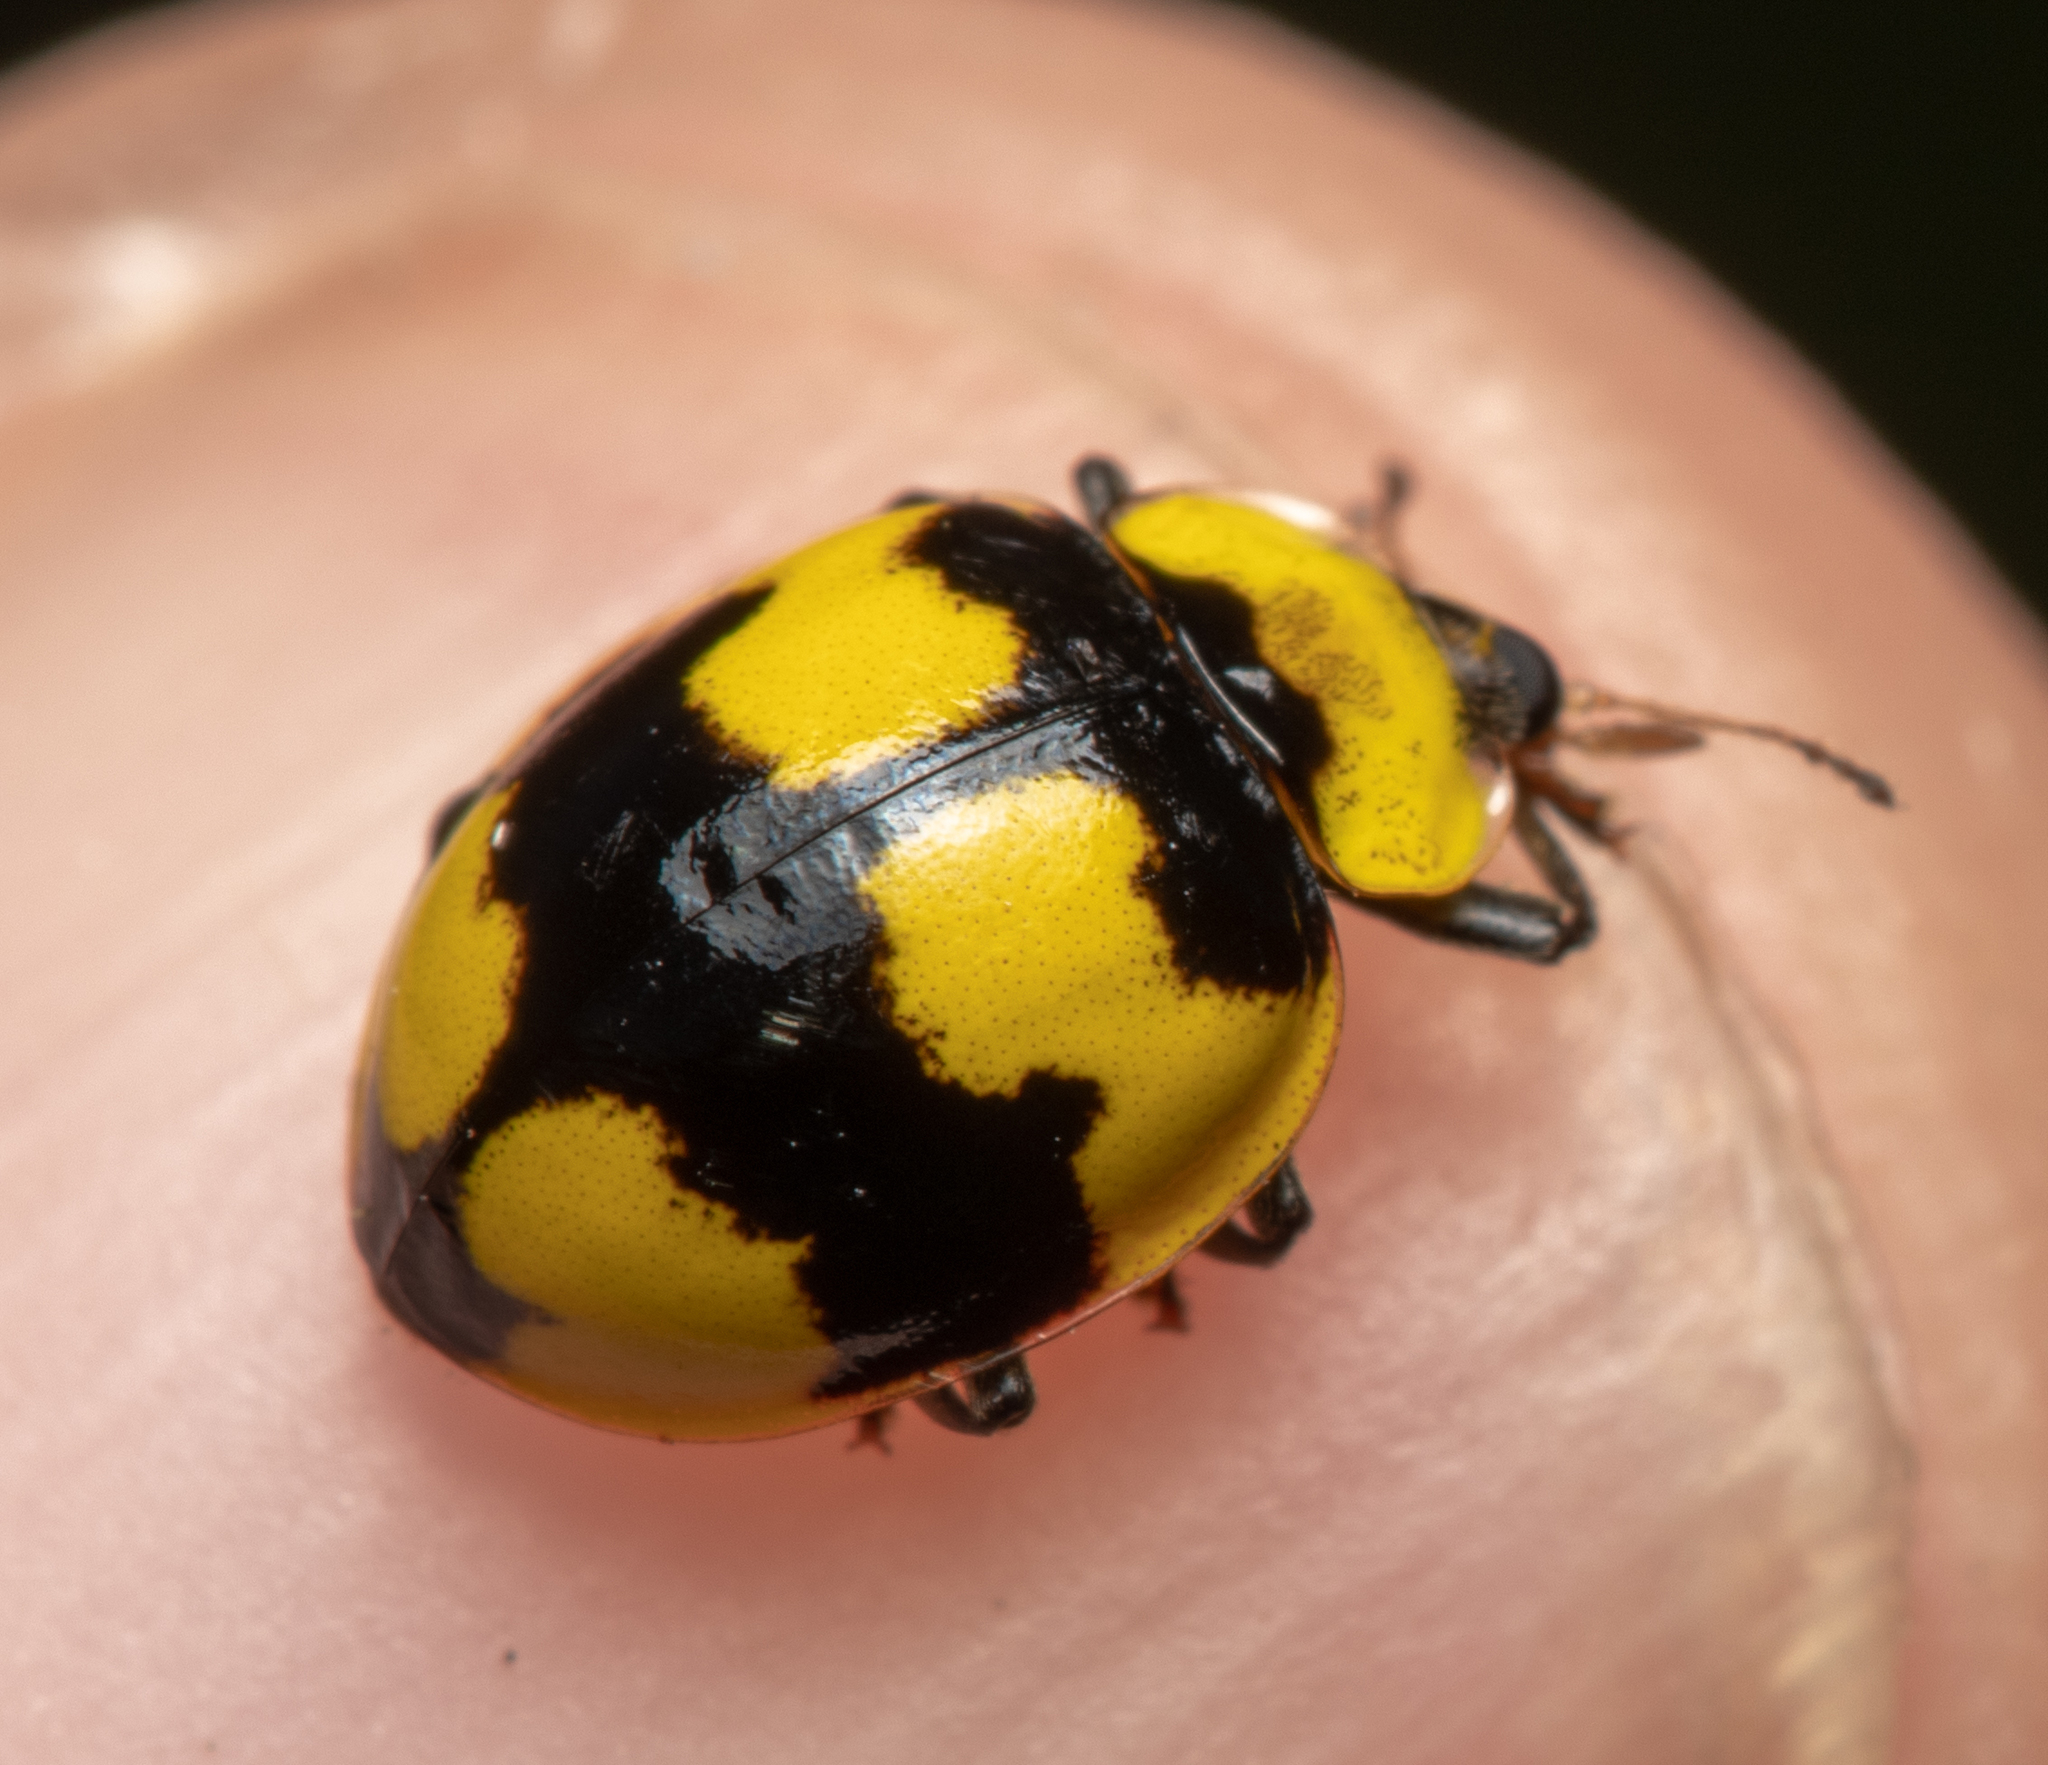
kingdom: Animalia
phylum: Arthropoda
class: Insecta
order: Coleoptera
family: Coccinellidae
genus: Illeis
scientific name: Illeis galbula
